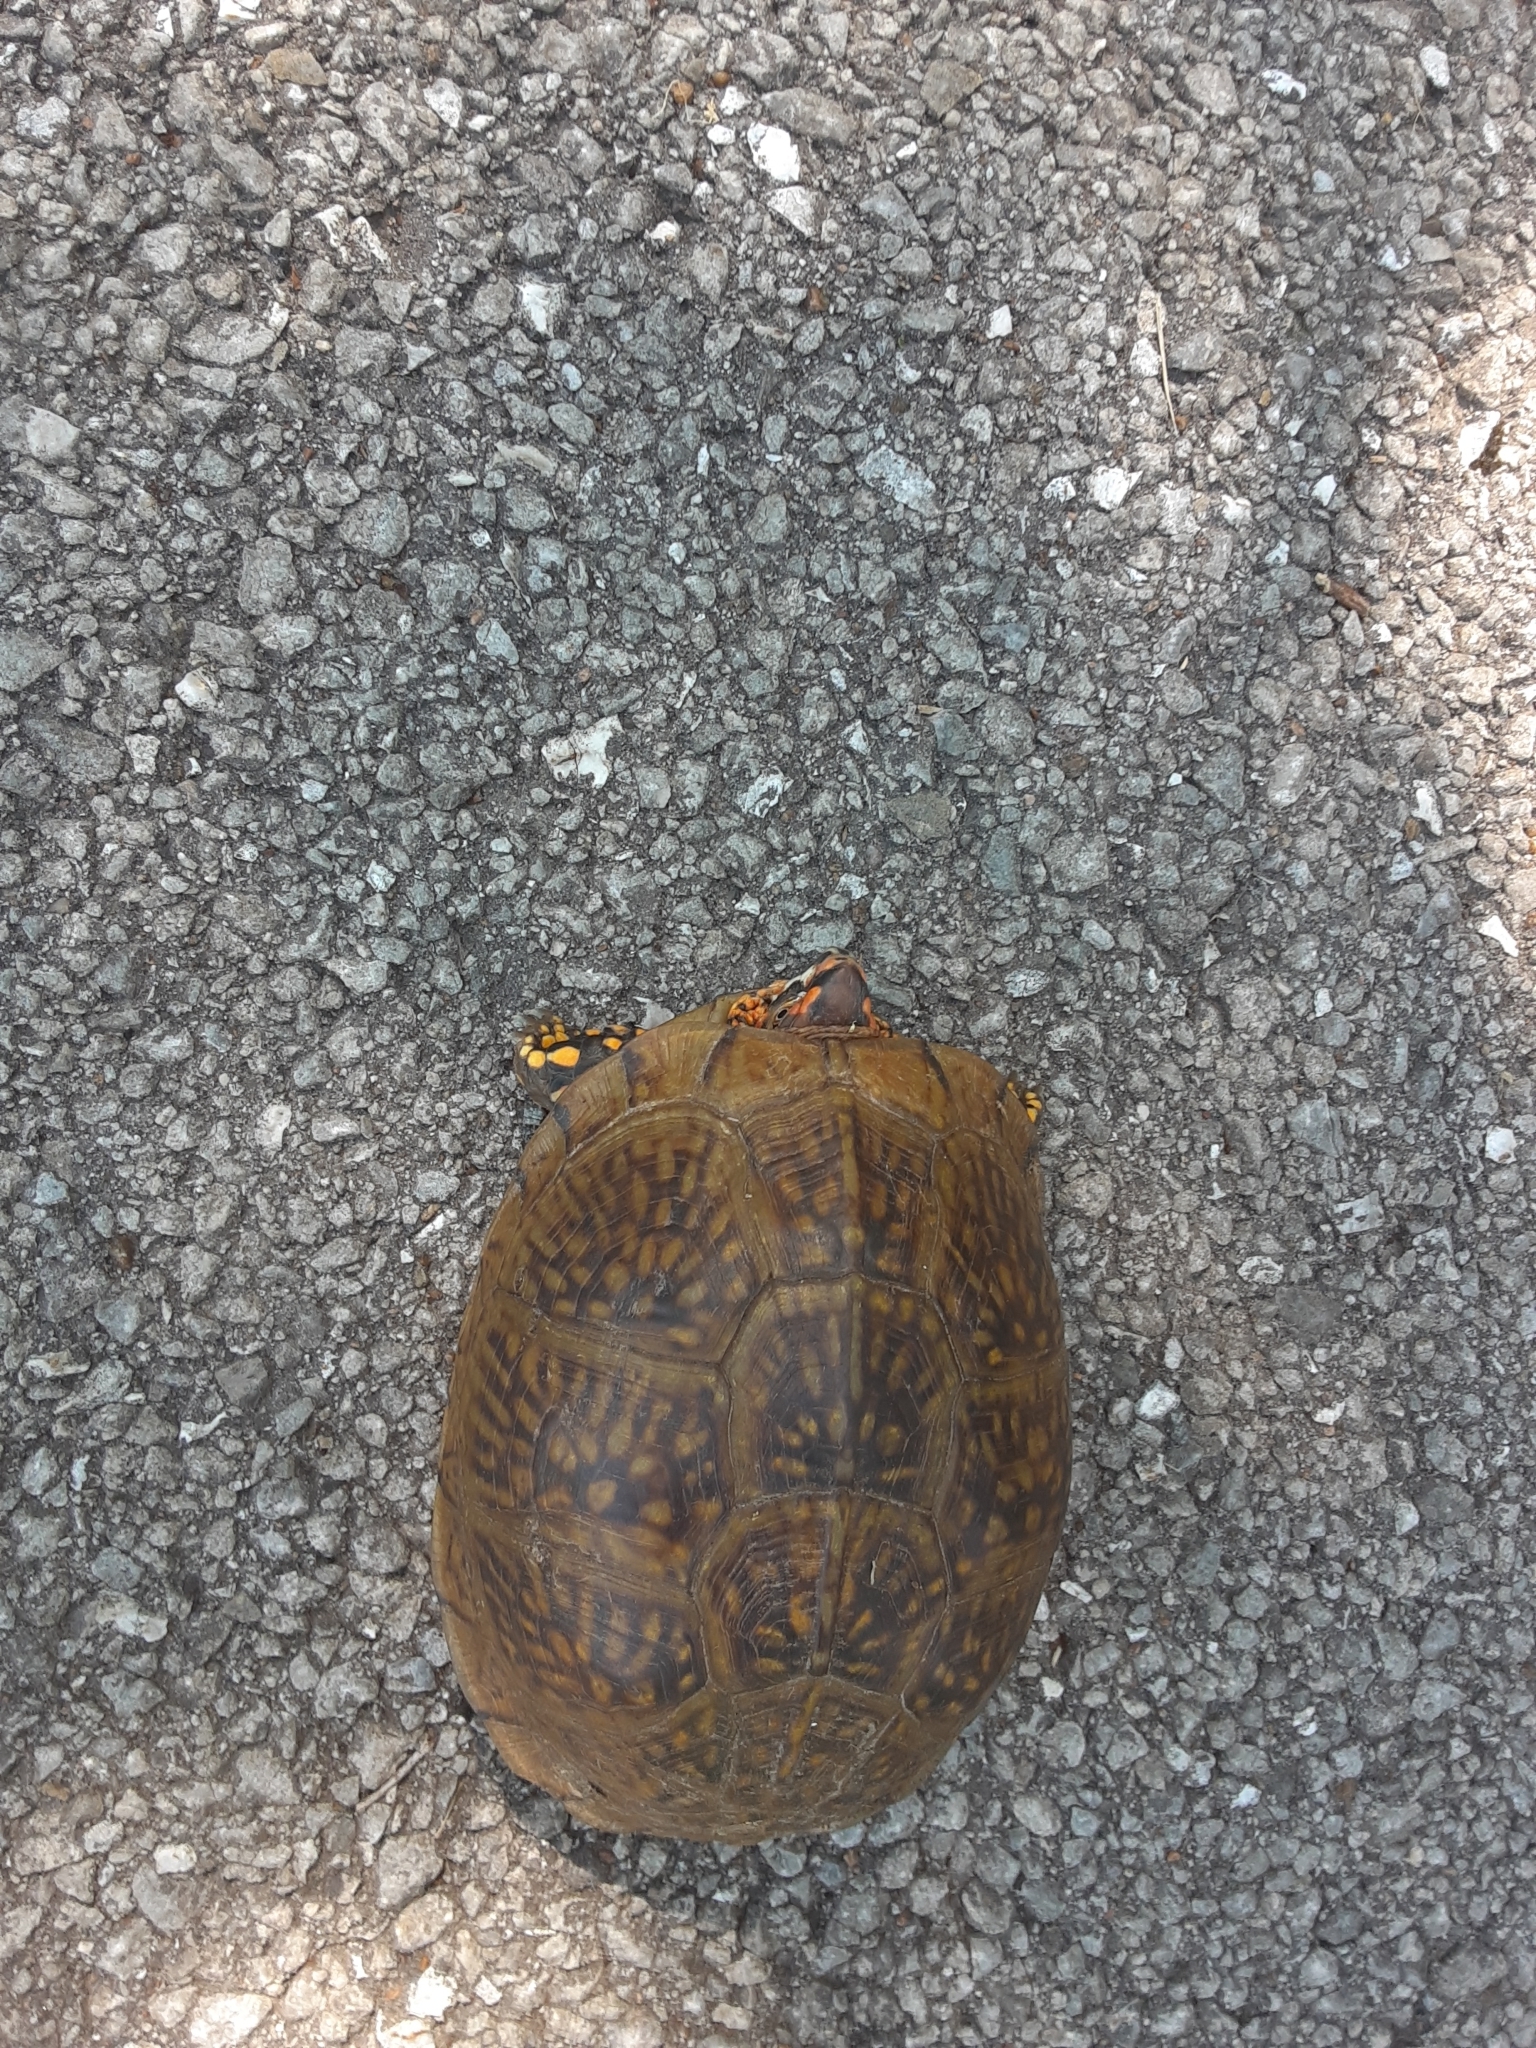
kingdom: Animalia
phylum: Chordata
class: Testudines
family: Emydidae
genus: Terrapene
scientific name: Terrapene carolina
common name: Common box turtle
